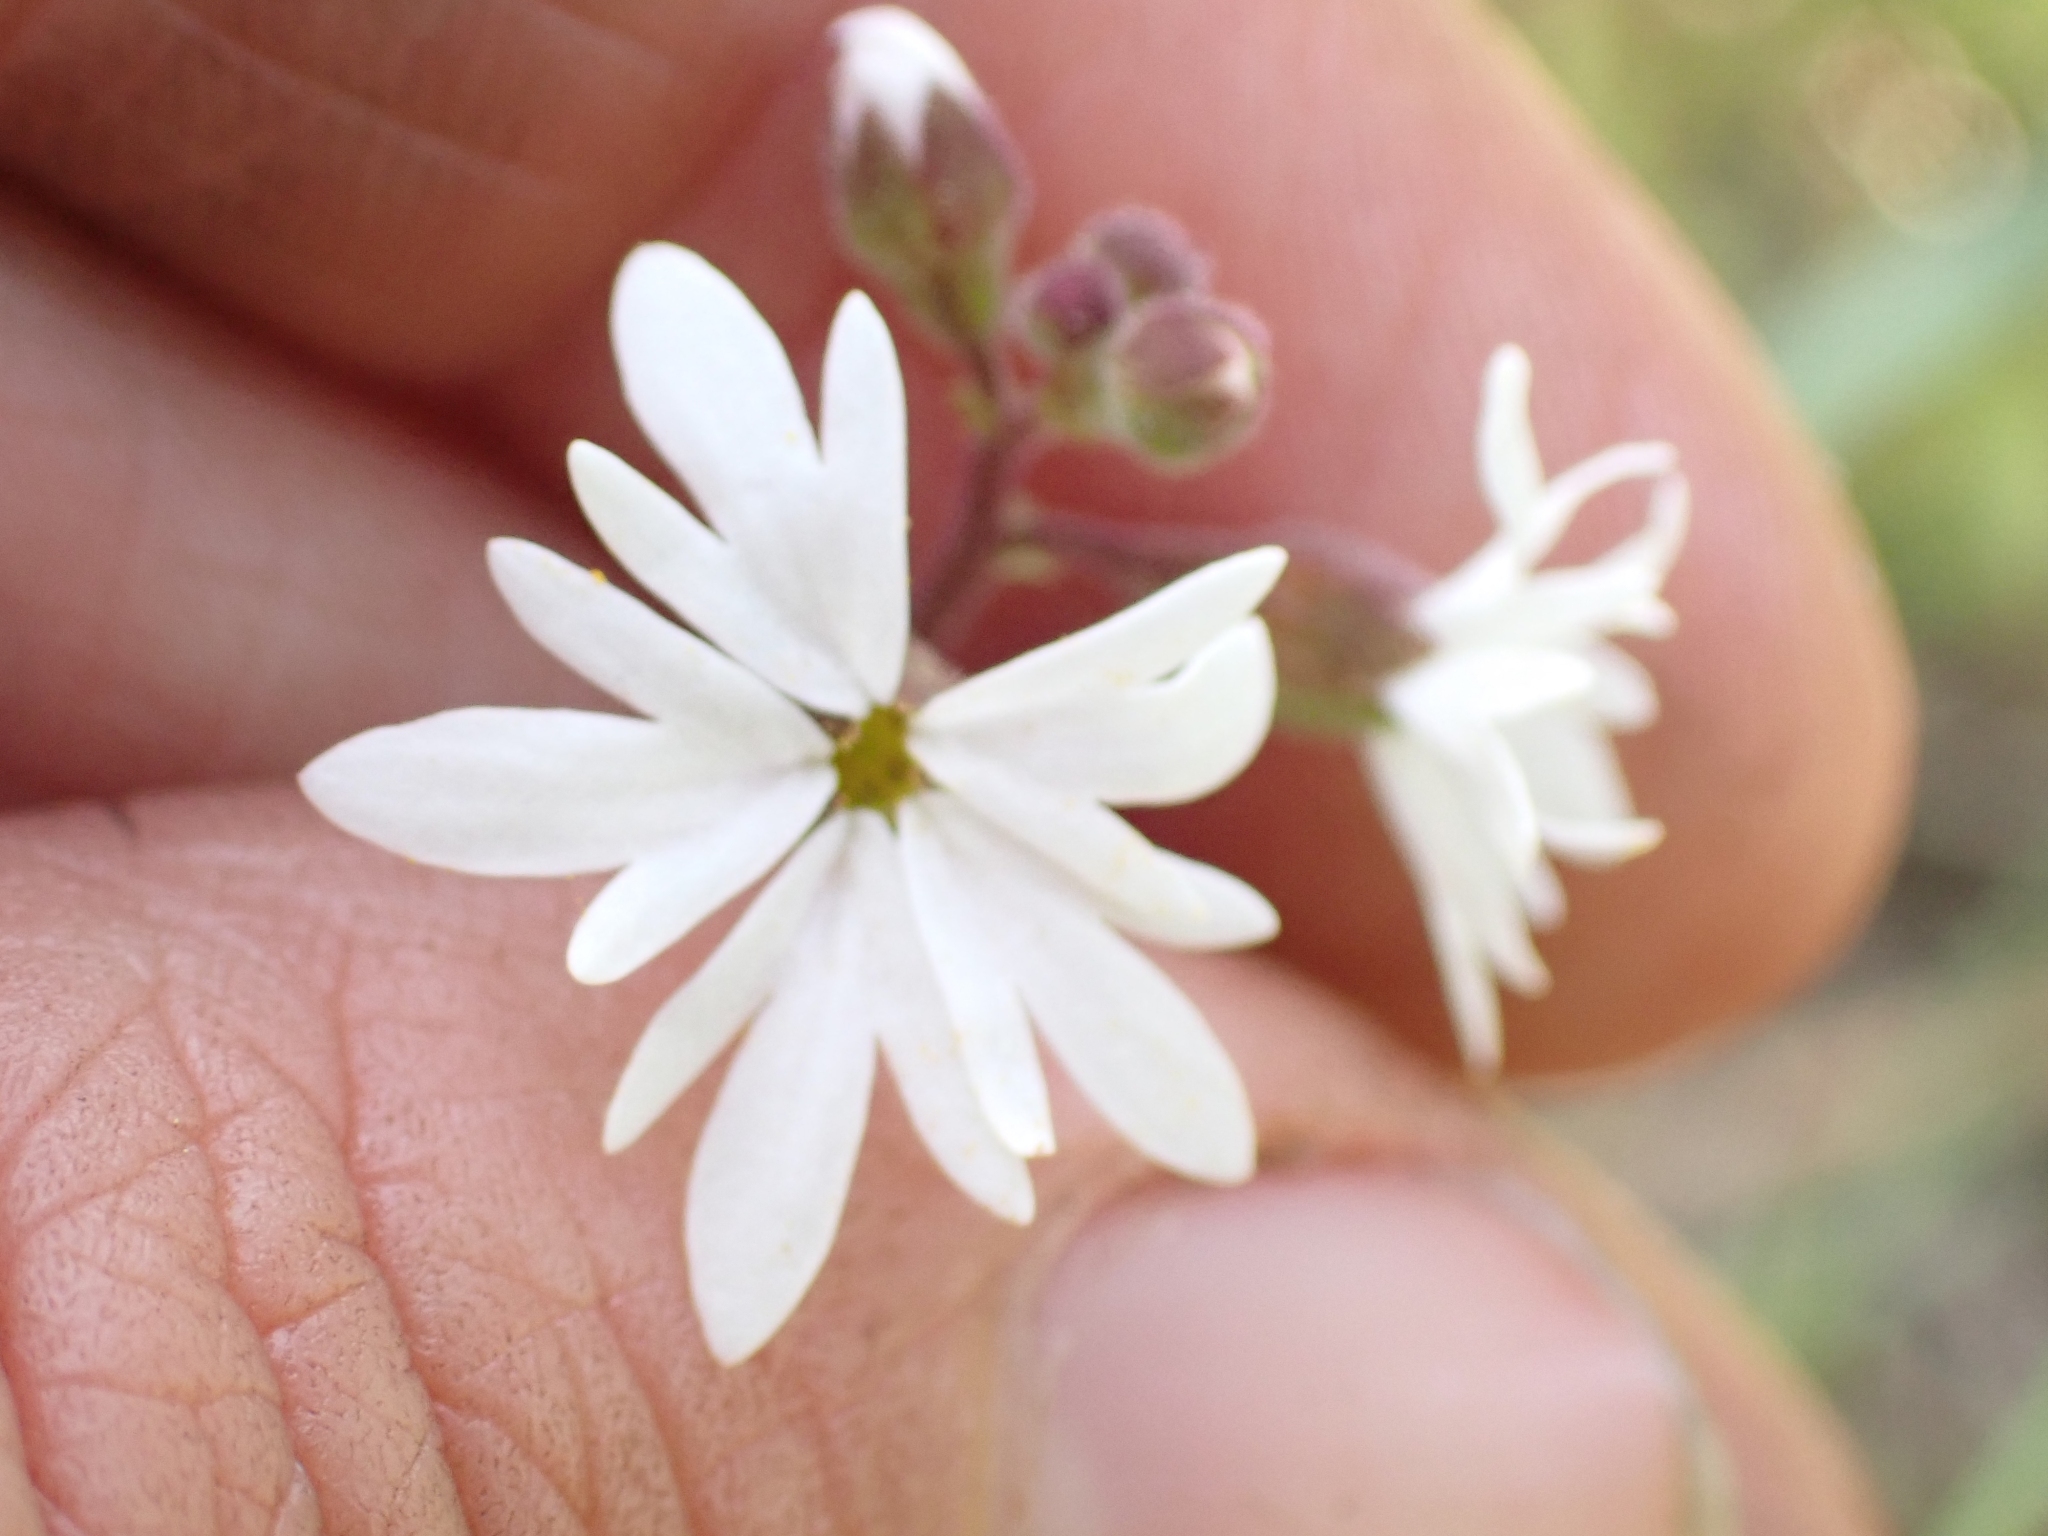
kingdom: Plantae
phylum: Tracheophyta
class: Magnoliopsida
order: Saxifragales
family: Saxifragaceae
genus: Lithophragma
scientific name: Lithophragma parviflorum
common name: Small-flowered fringe-cup
